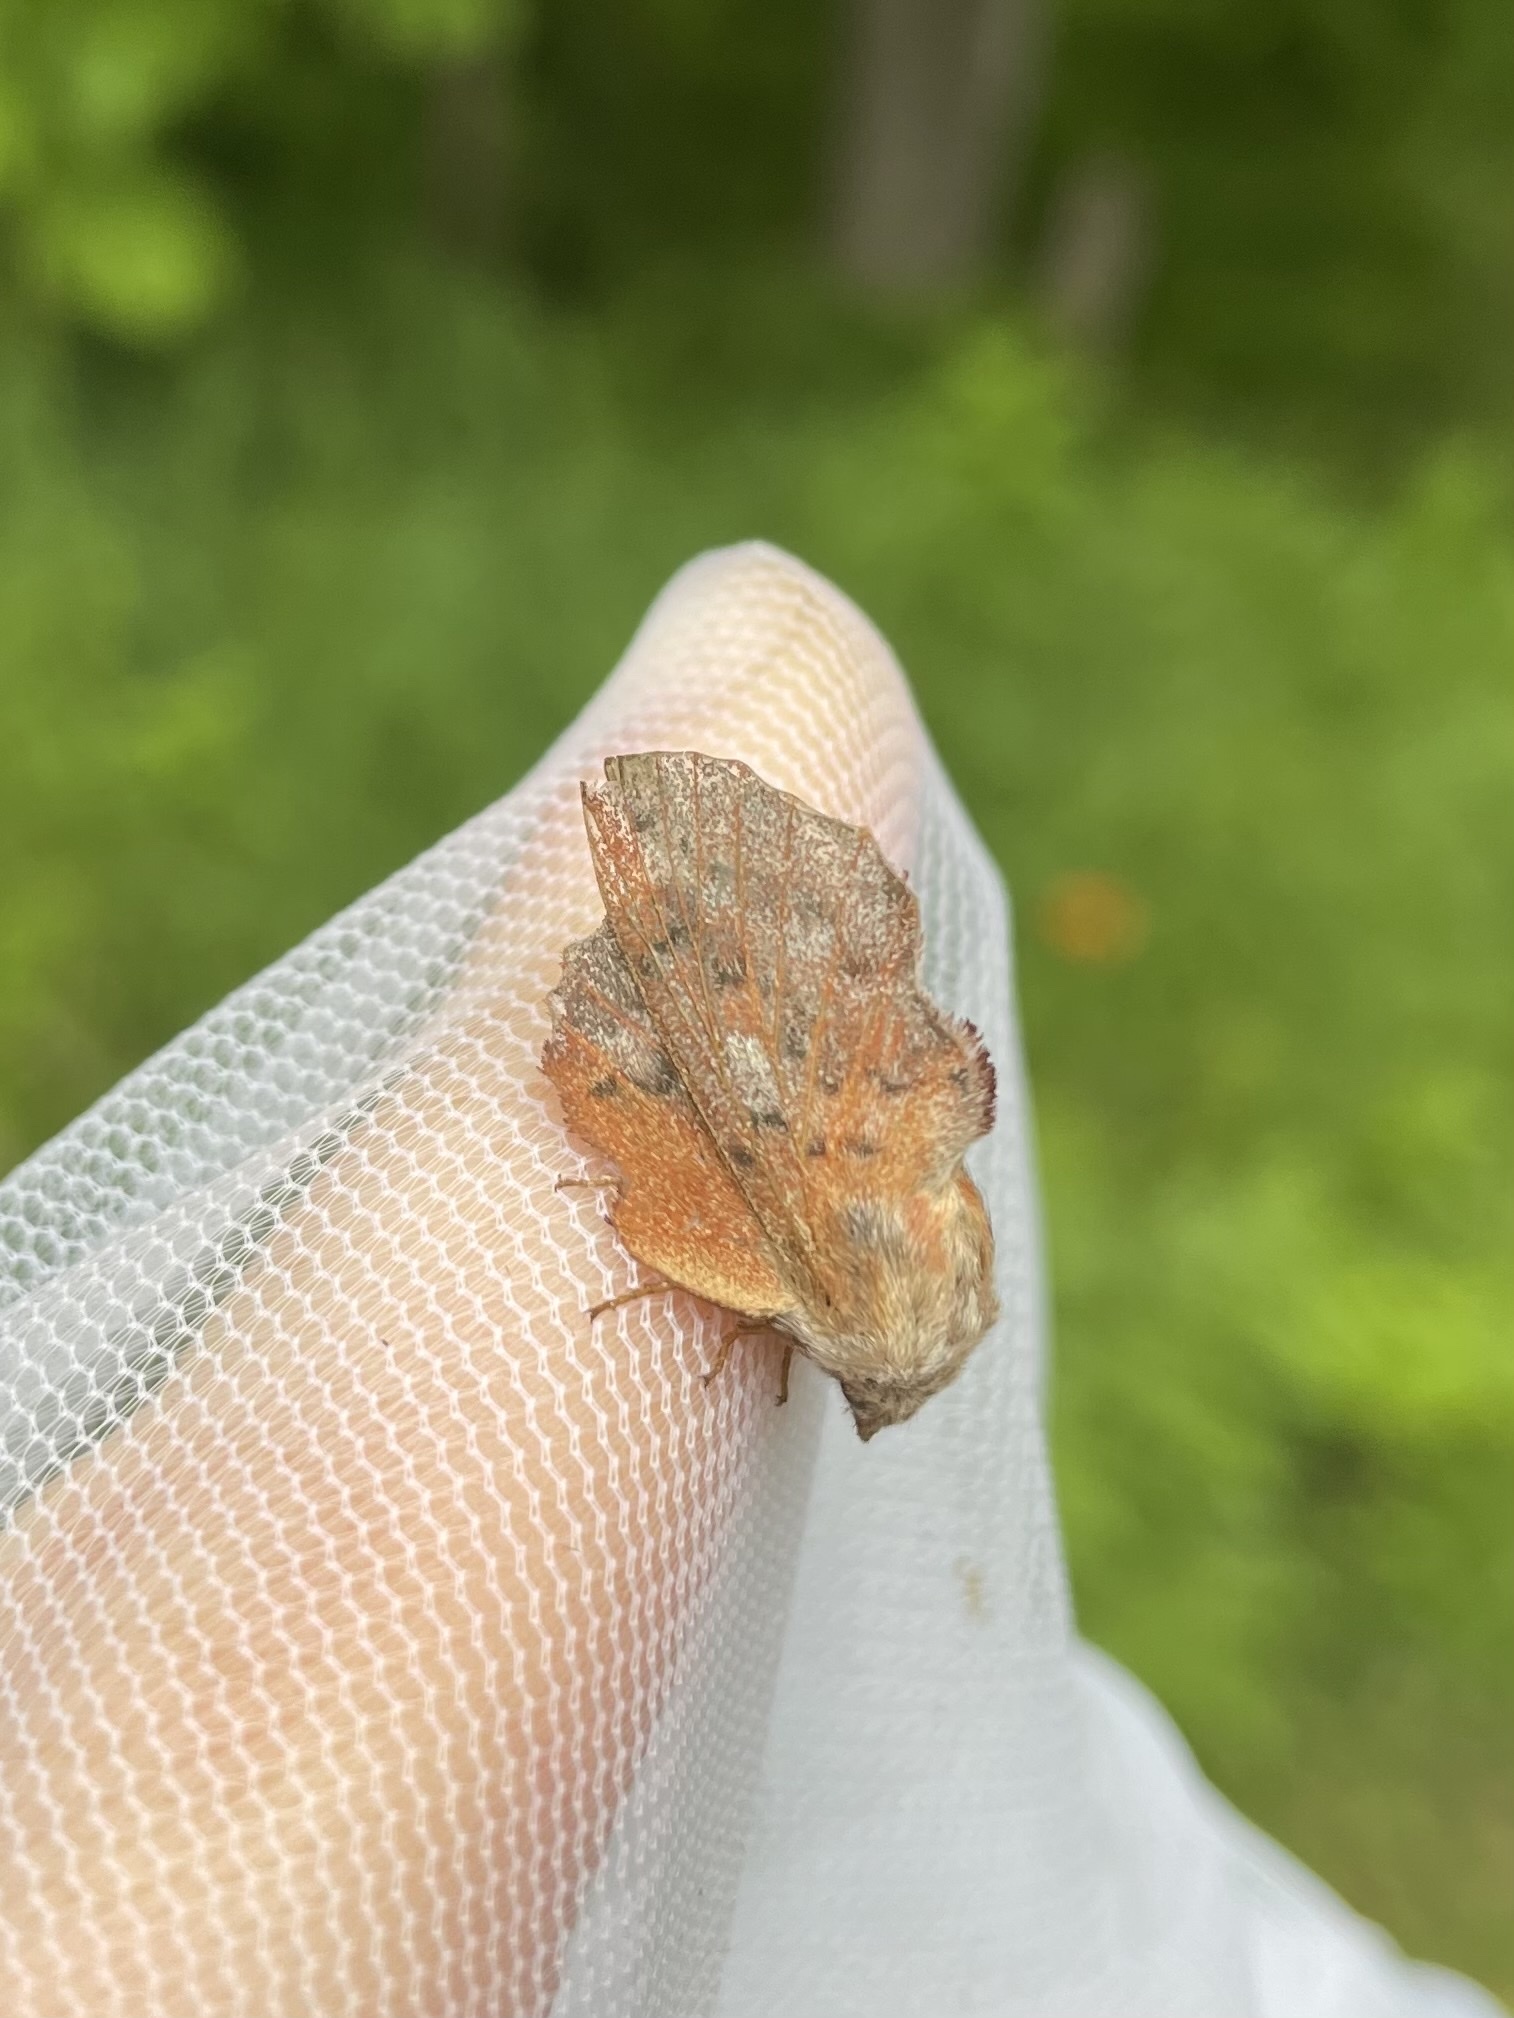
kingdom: Animalia
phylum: Arthropoda
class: Insecta
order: Lepidoptera
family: Lasiocampidae
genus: Phyllodesma
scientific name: Phyllodesma americana
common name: American lappet moth
